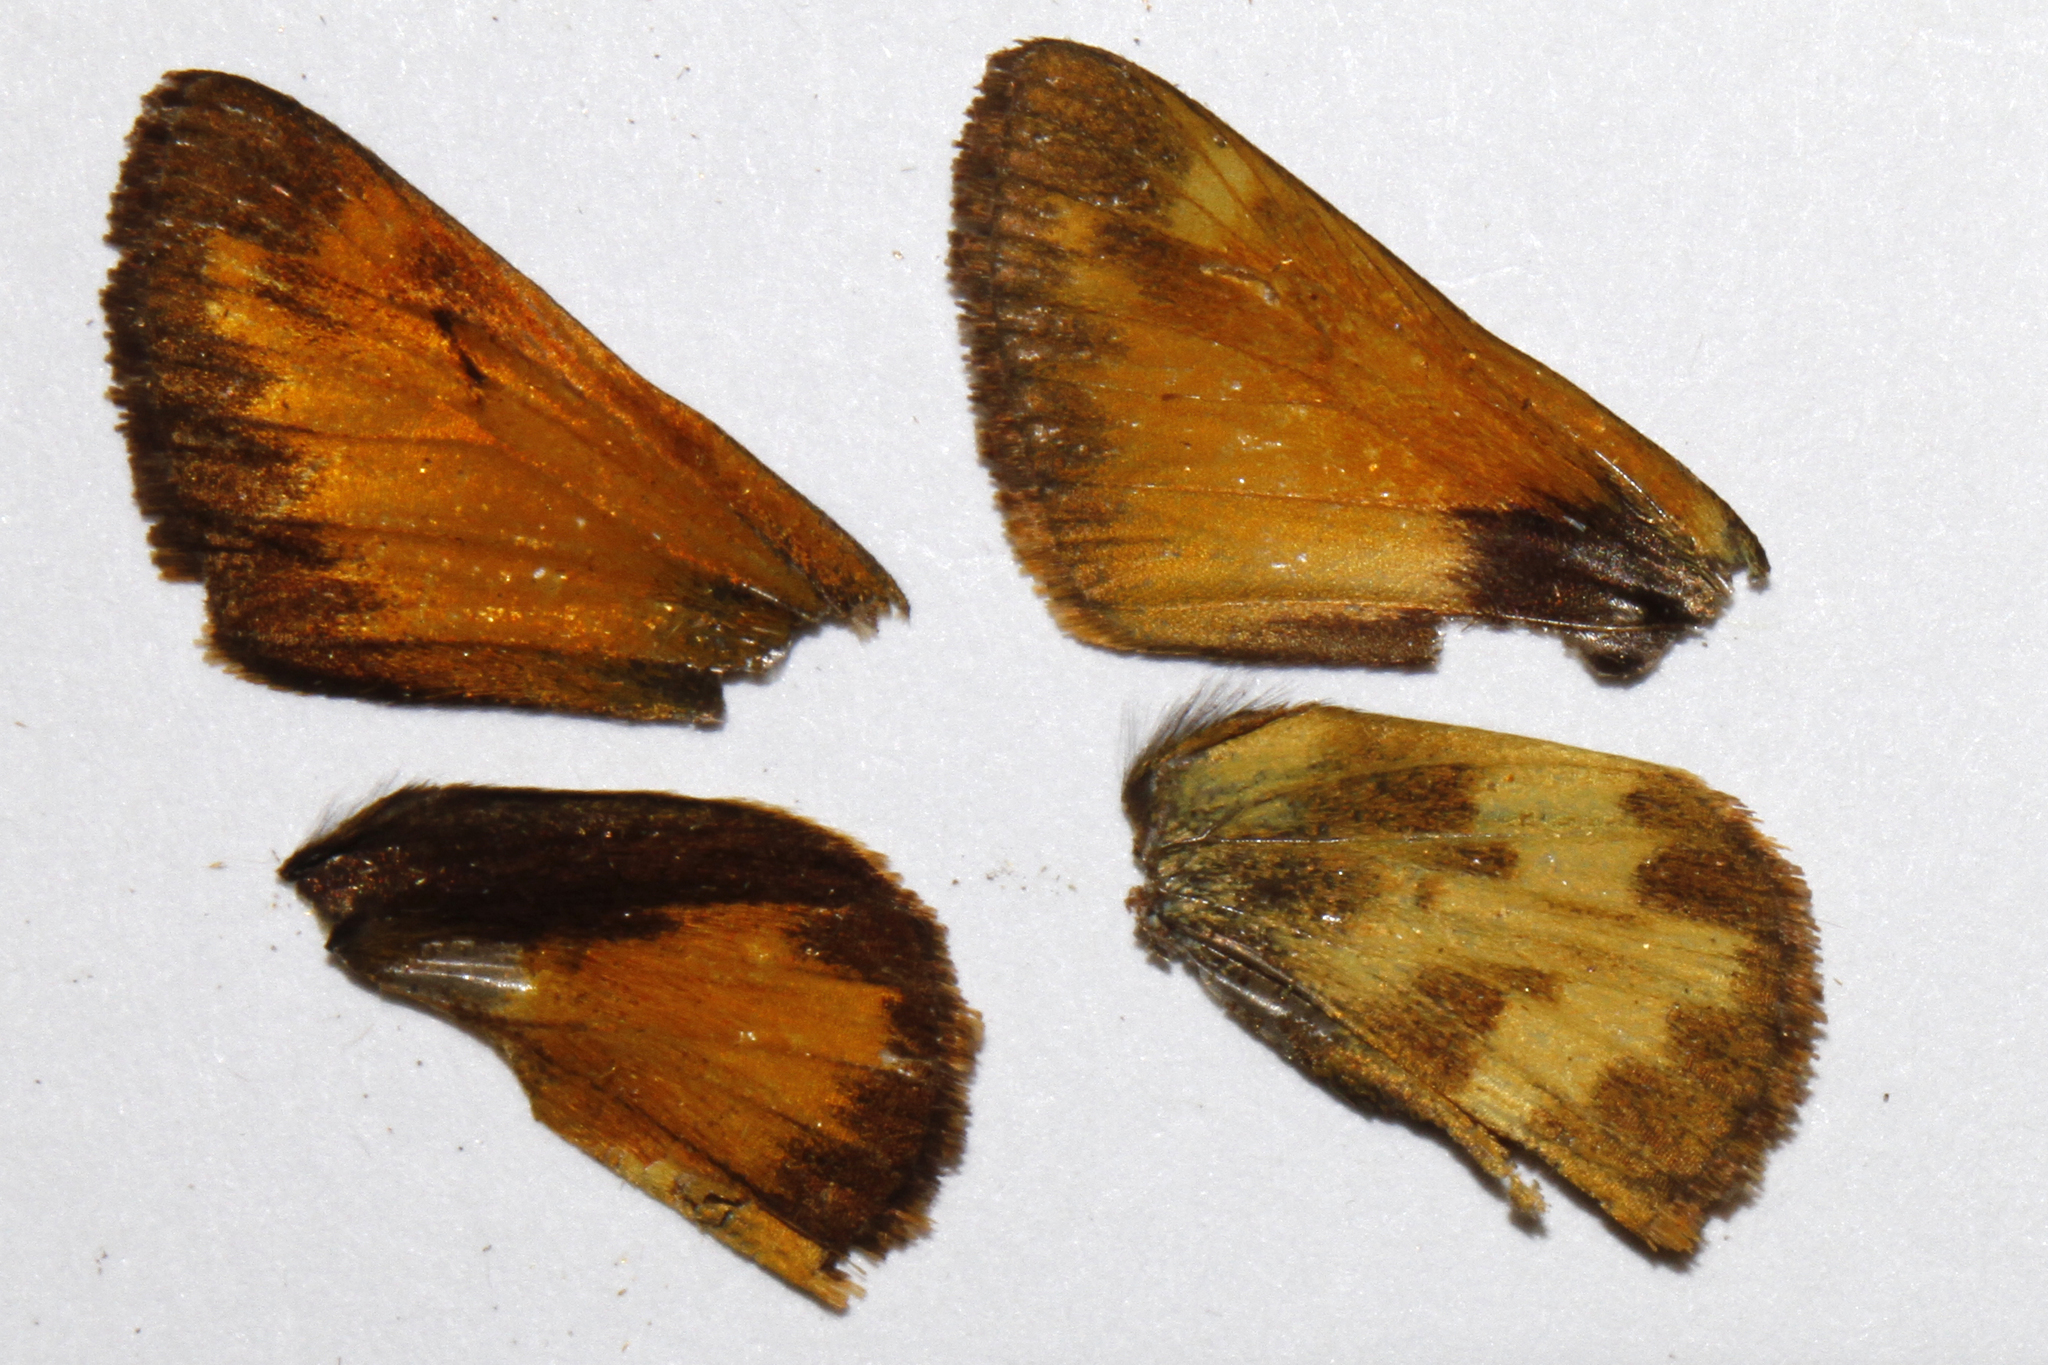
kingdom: Animalia
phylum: Arthropoda
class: Insecta
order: Lepidoptera
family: Hesperiidae
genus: Lon
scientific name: Lon taxiles
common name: Taxiles skipper
